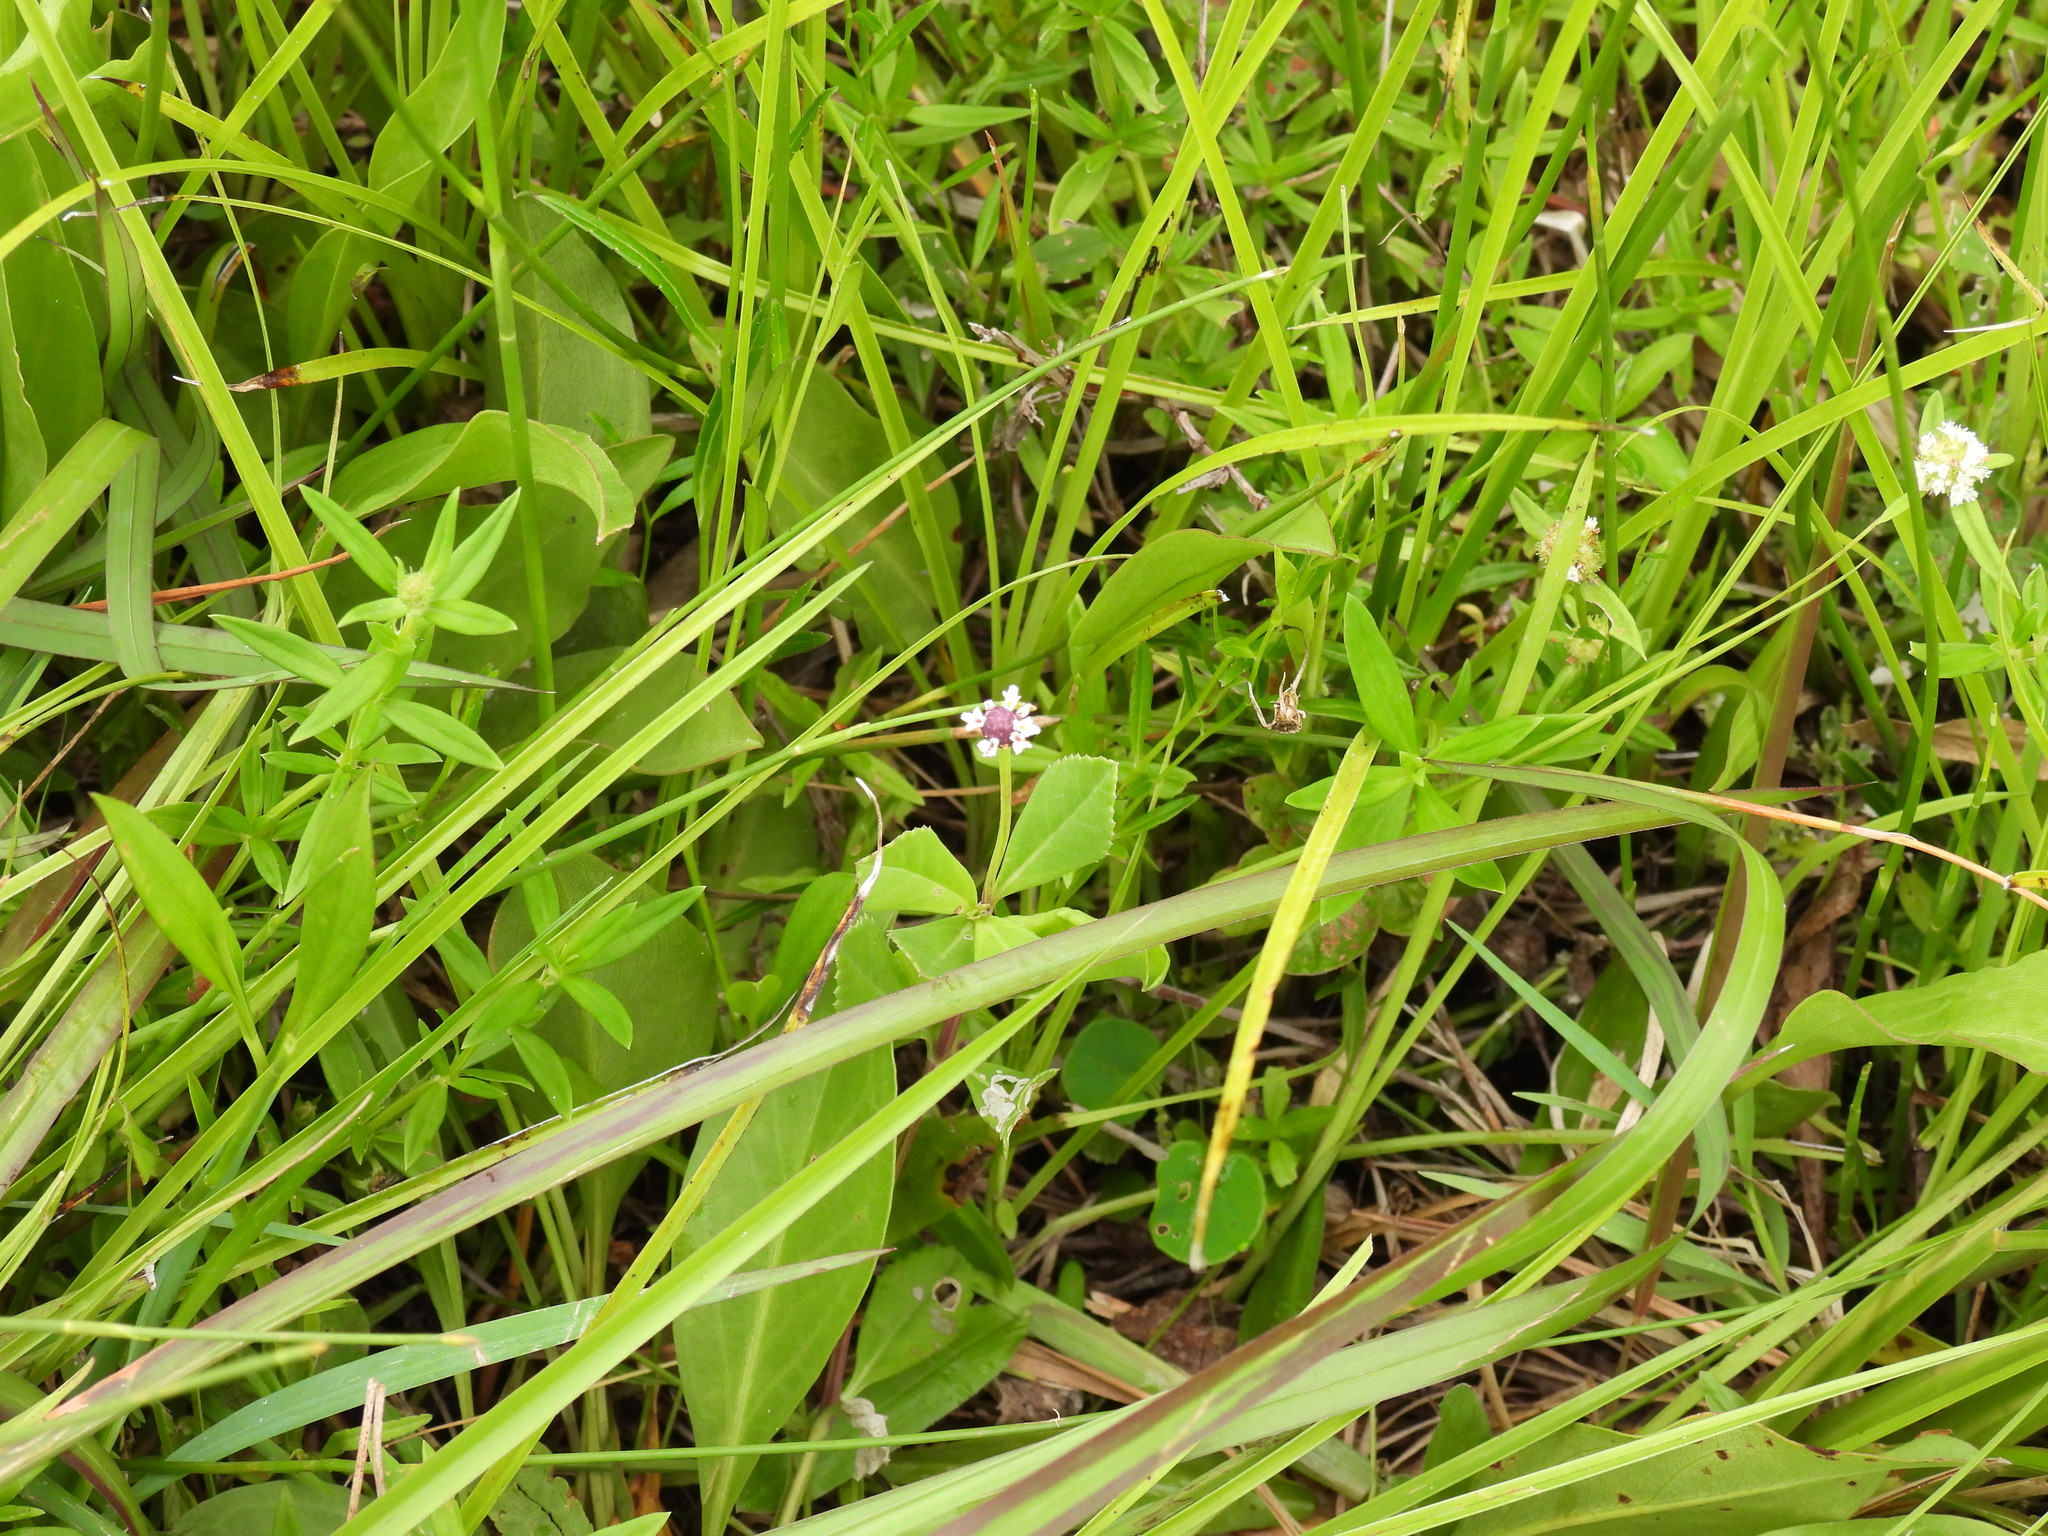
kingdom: Plantae
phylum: Tracheophyta
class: Magnoliopsida
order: Lamiales
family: Verbenaceae
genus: Phyla
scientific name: Phyla nodiflora
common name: Frogfruit
